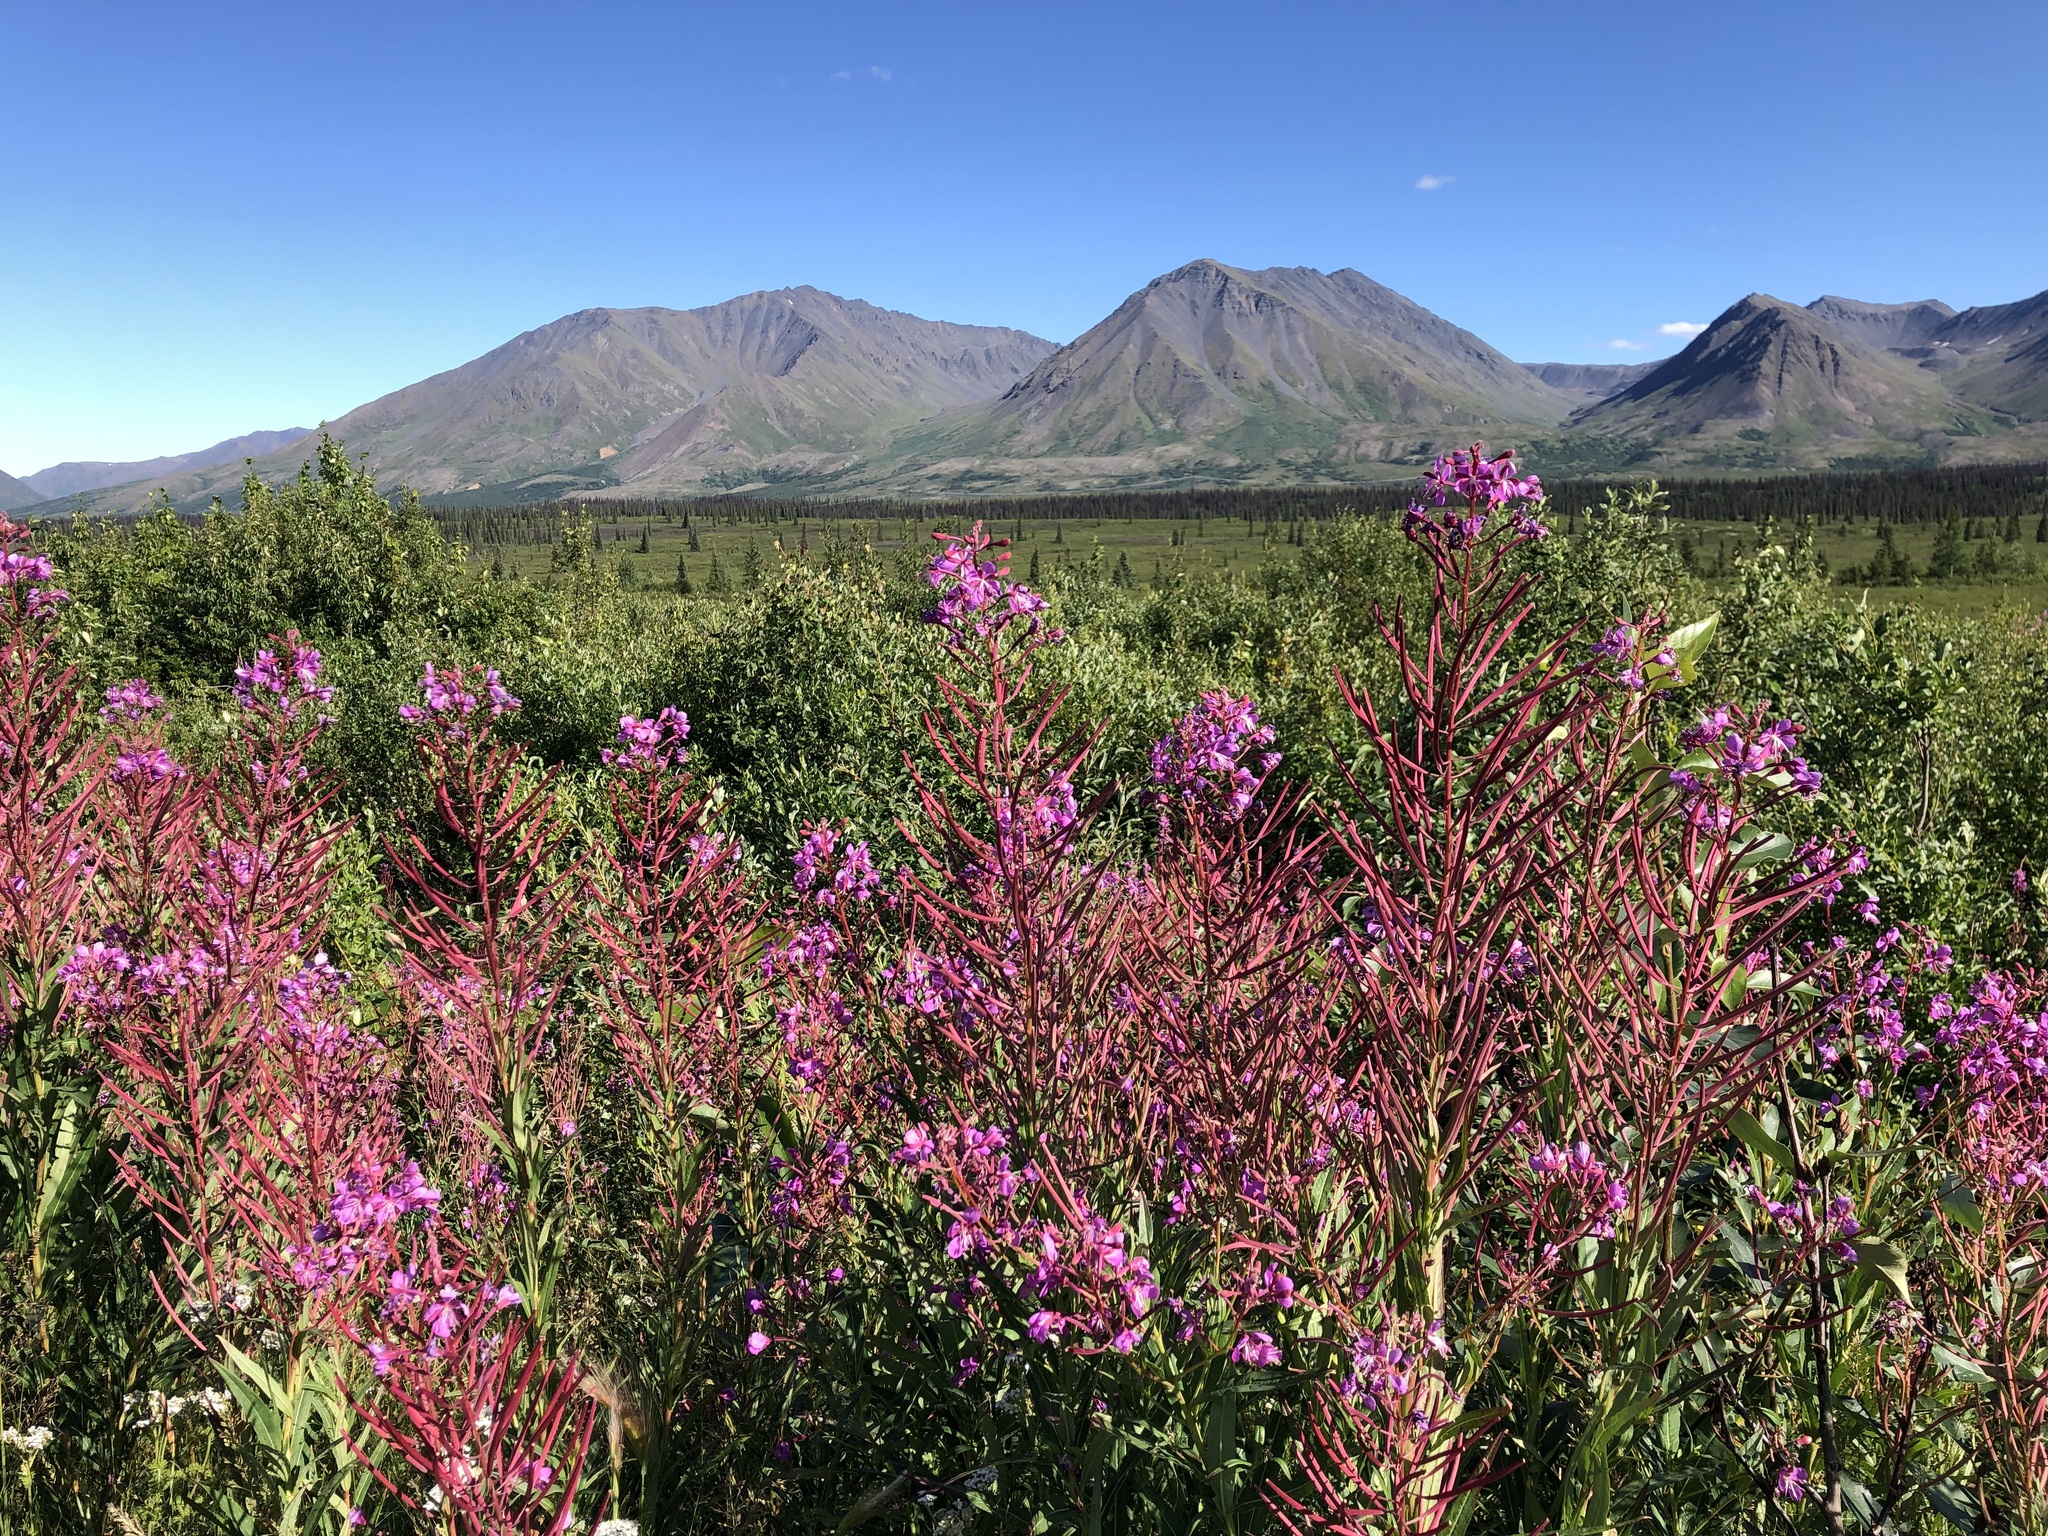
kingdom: Plantae
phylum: Tracheophyta
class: Magnoliopsida
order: Myrtales
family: Onagraceae
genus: Chamaenerion
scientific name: Chamaenerion angustifolium
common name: Fireweed
